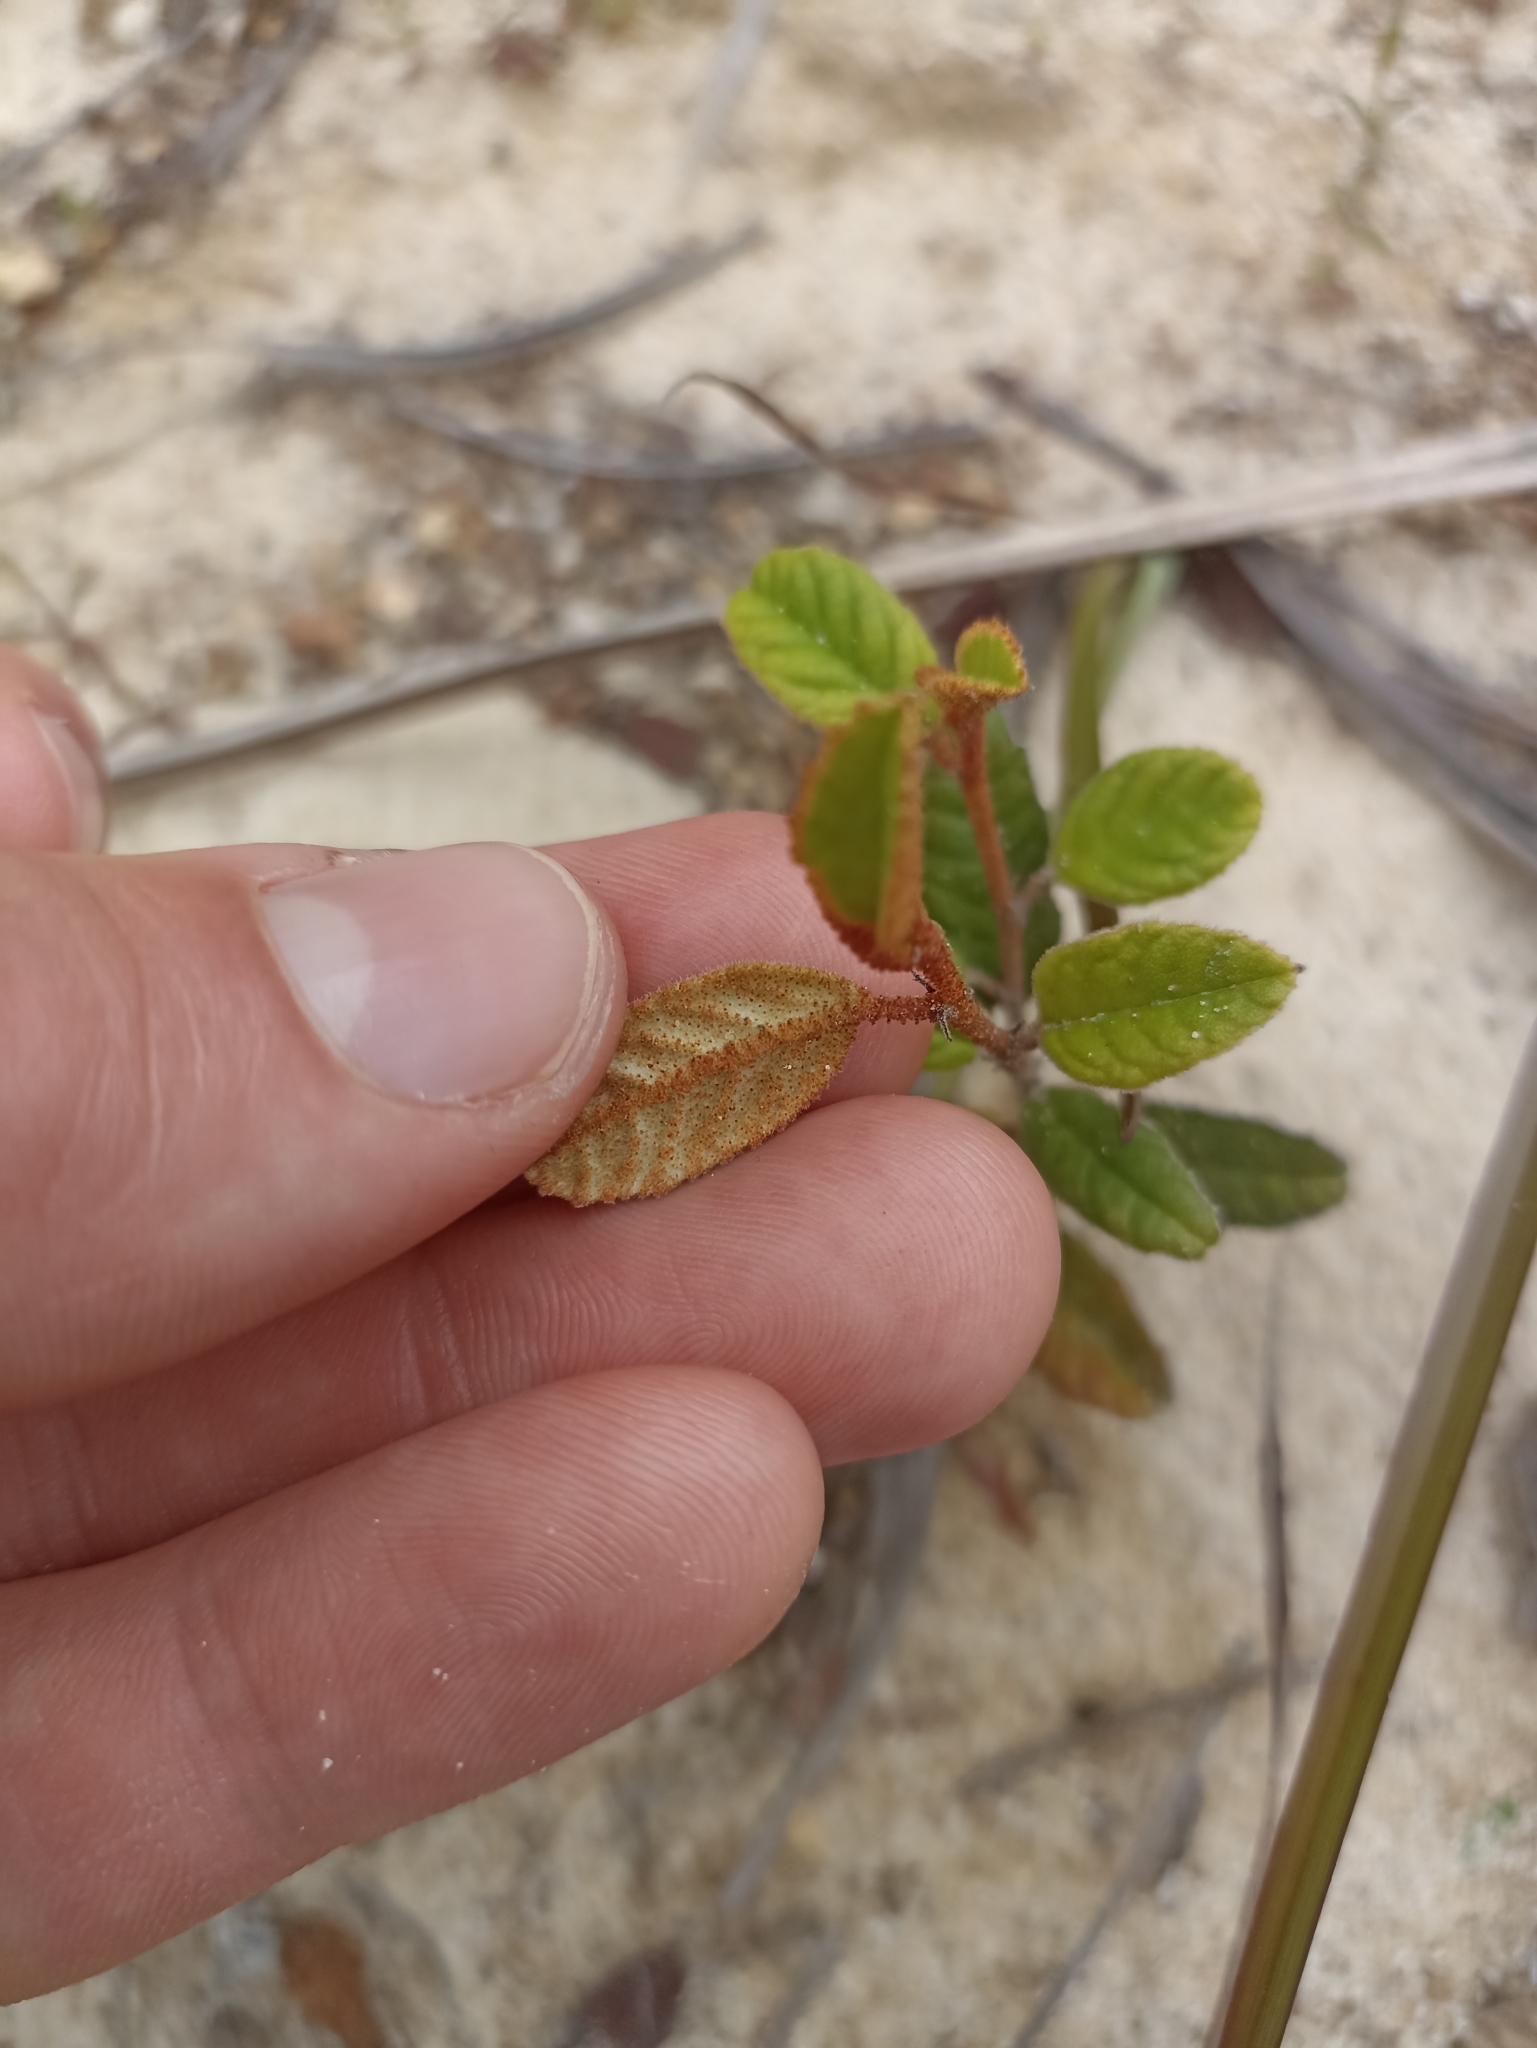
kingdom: Plantae
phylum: Tracheophyta
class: Magnoliopsida
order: Rosales
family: Rhamnaceae
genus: Pomaderris
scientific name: Pomaderris edgerleyi
